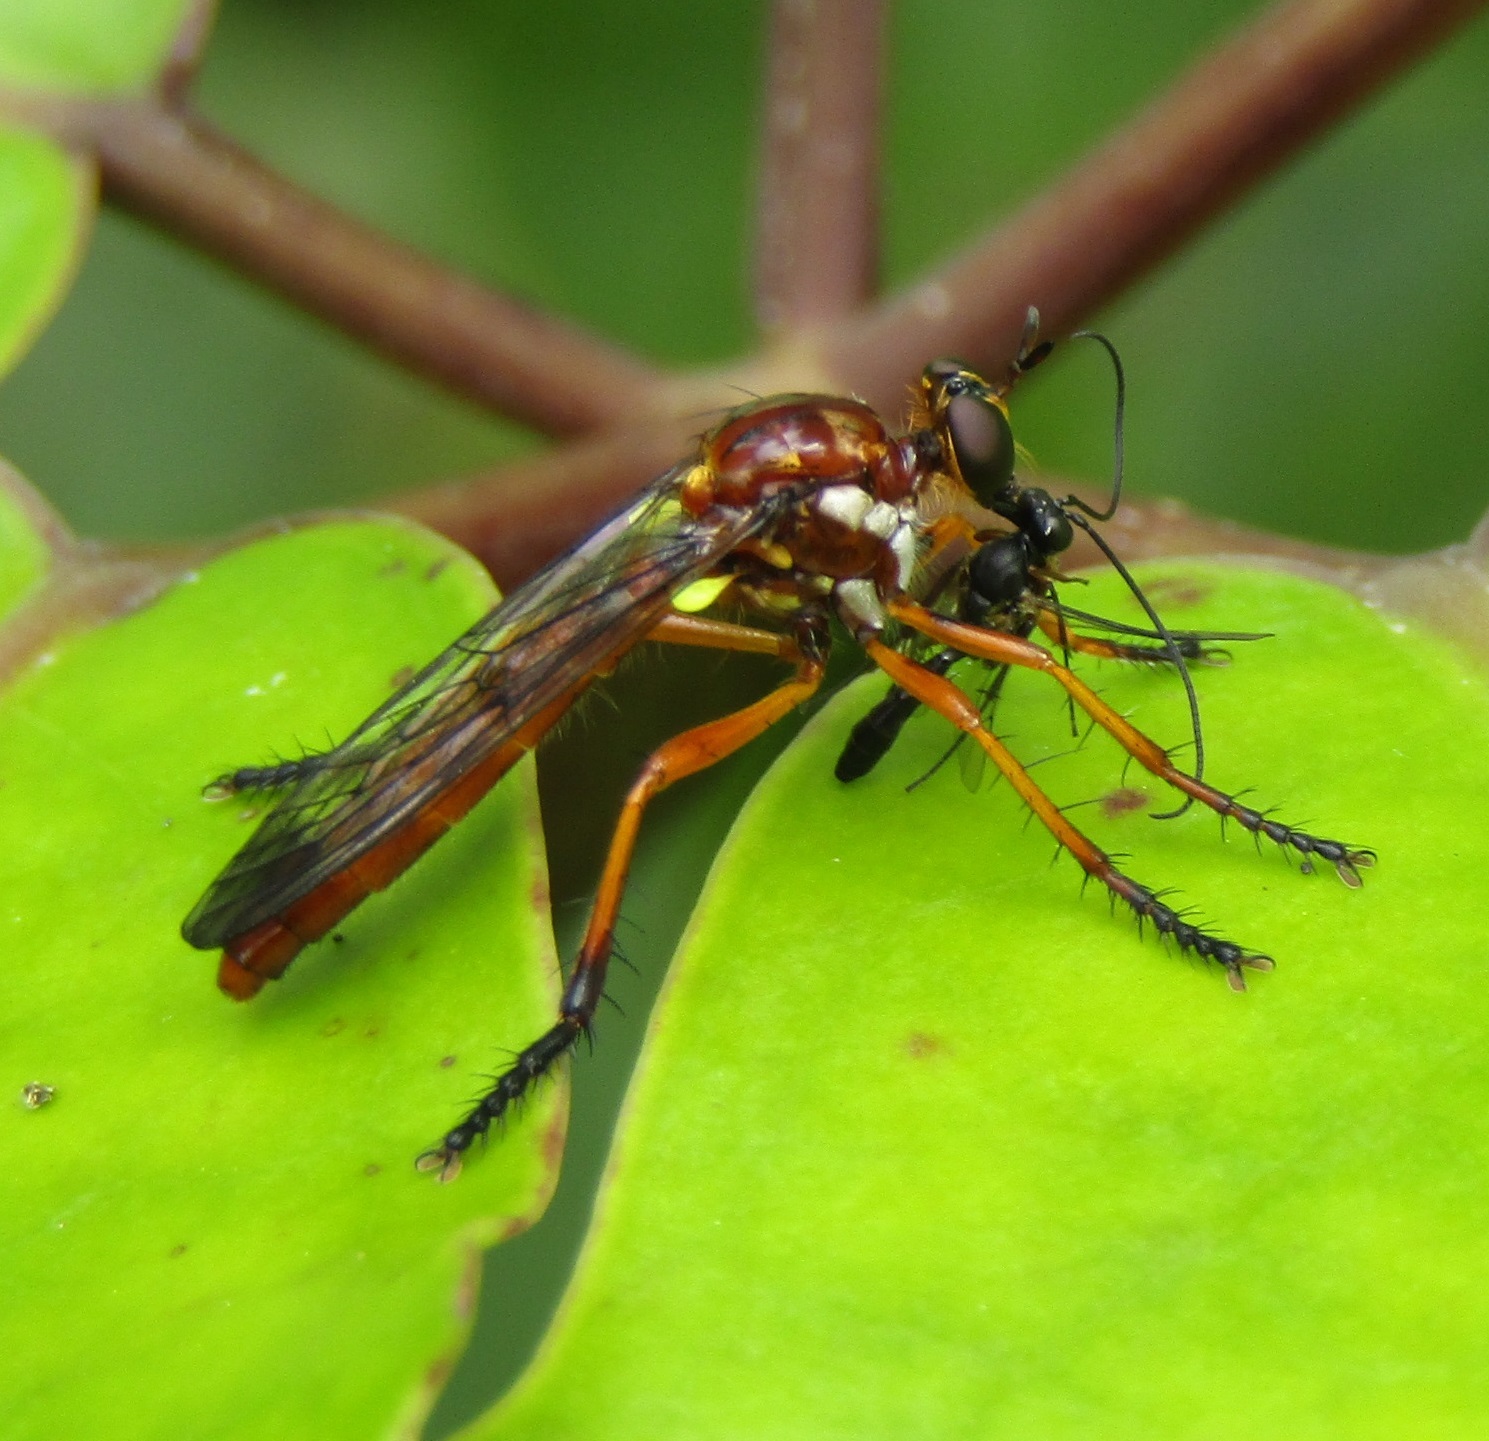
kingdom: Animalia
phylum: Arthropoda
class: Insecta
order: Diptera
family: Asilidae
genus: Saropogon
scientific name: Saropogon antipodus
